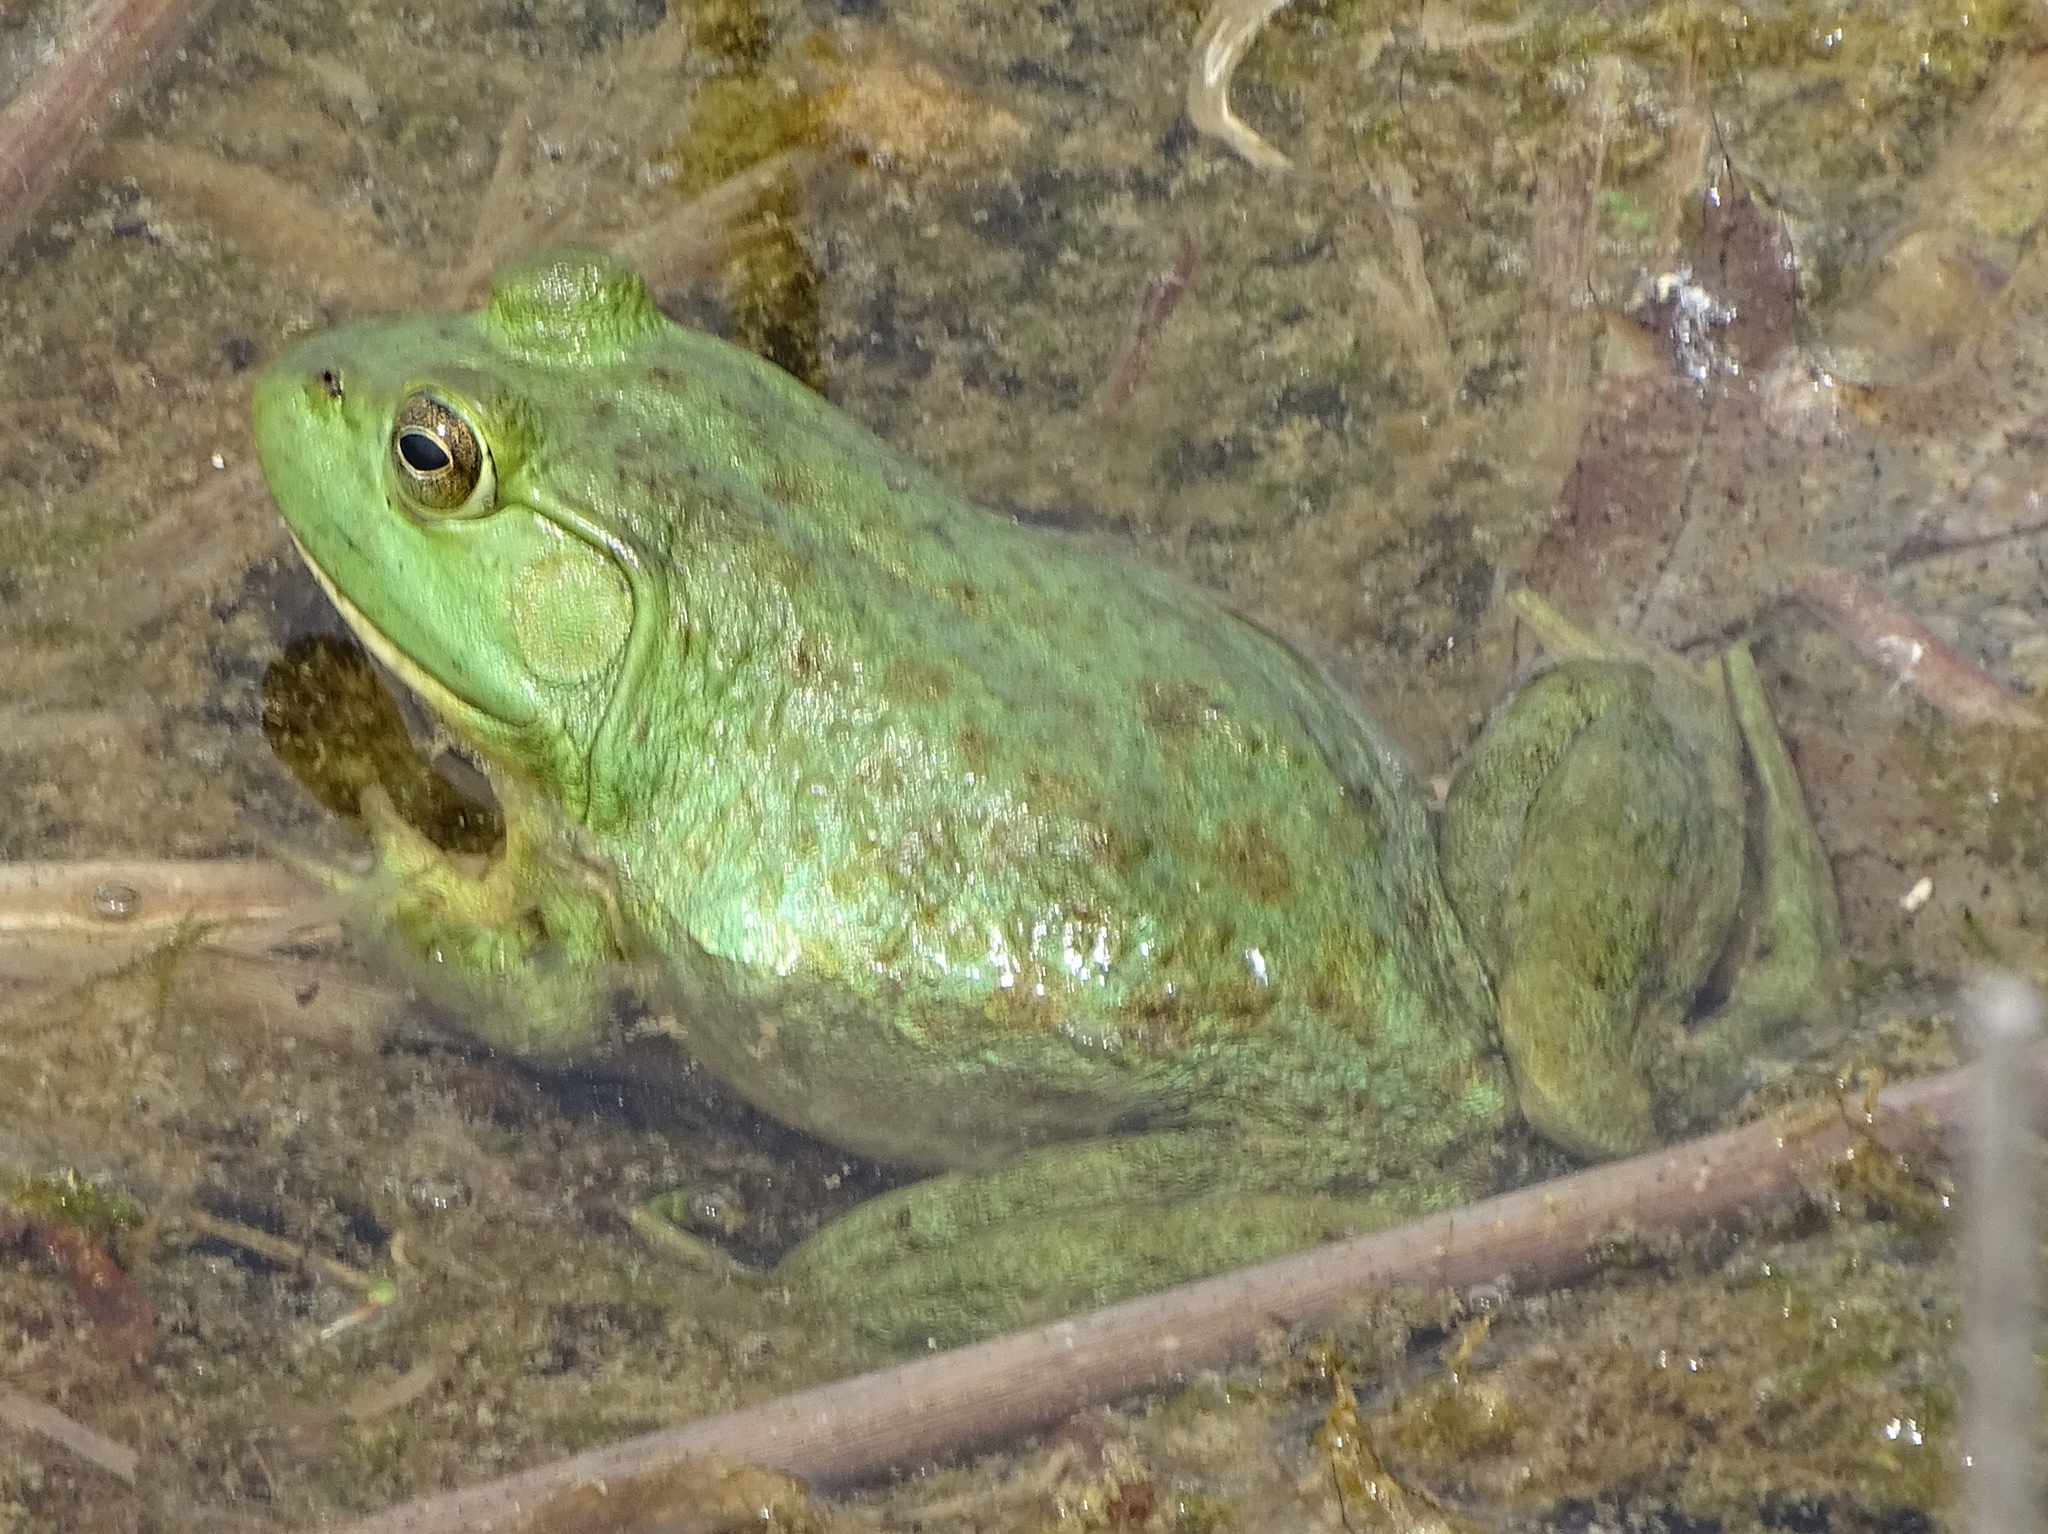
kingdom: Animalia
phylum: Chordata
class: Amphibia
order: Anura
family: Ranidae
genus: Lithobates
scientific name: Lithobates catesbeianus
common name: American bullfrog
